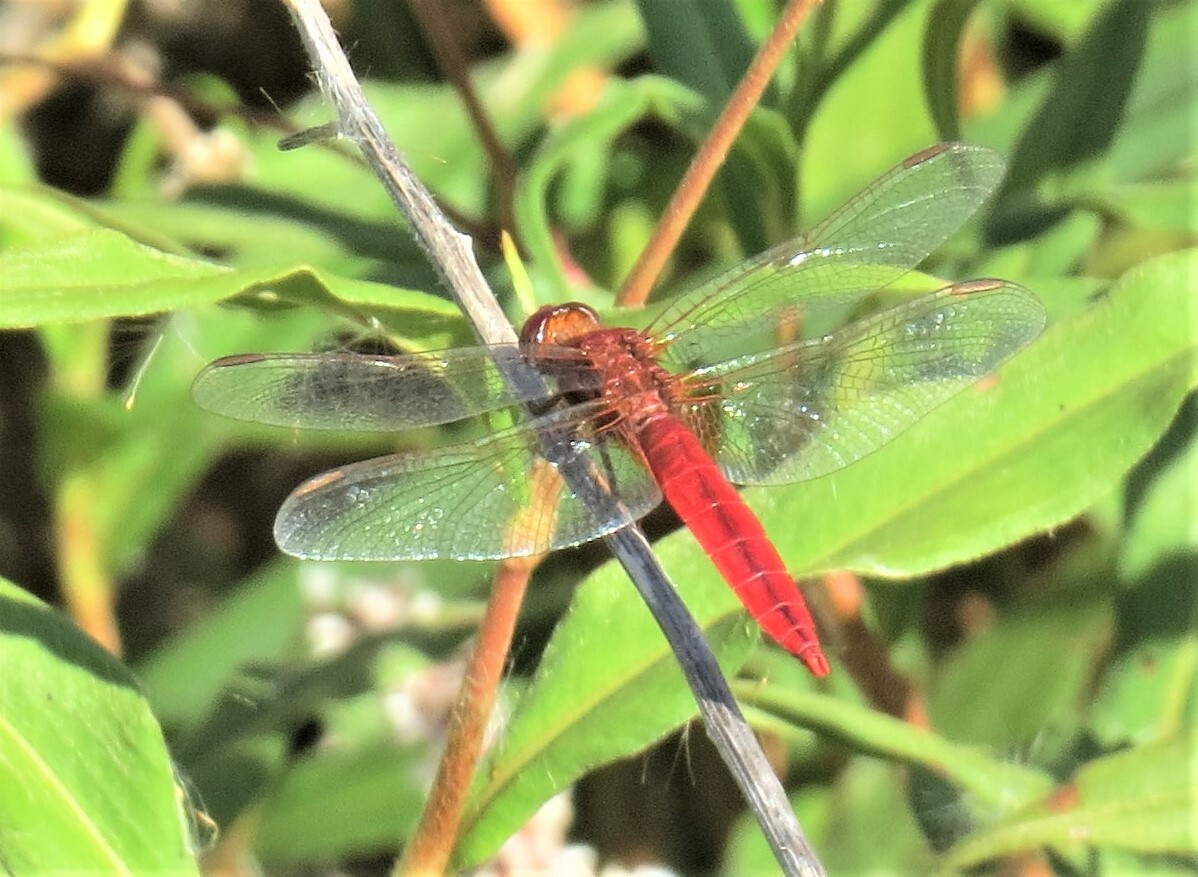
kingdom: Animalia
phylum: Arthropoda
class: Insecta
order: Odonata
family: Libellulidae
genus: Crocothemis
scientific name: Crocothemis erythraea
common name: Scarlet dragonfly
